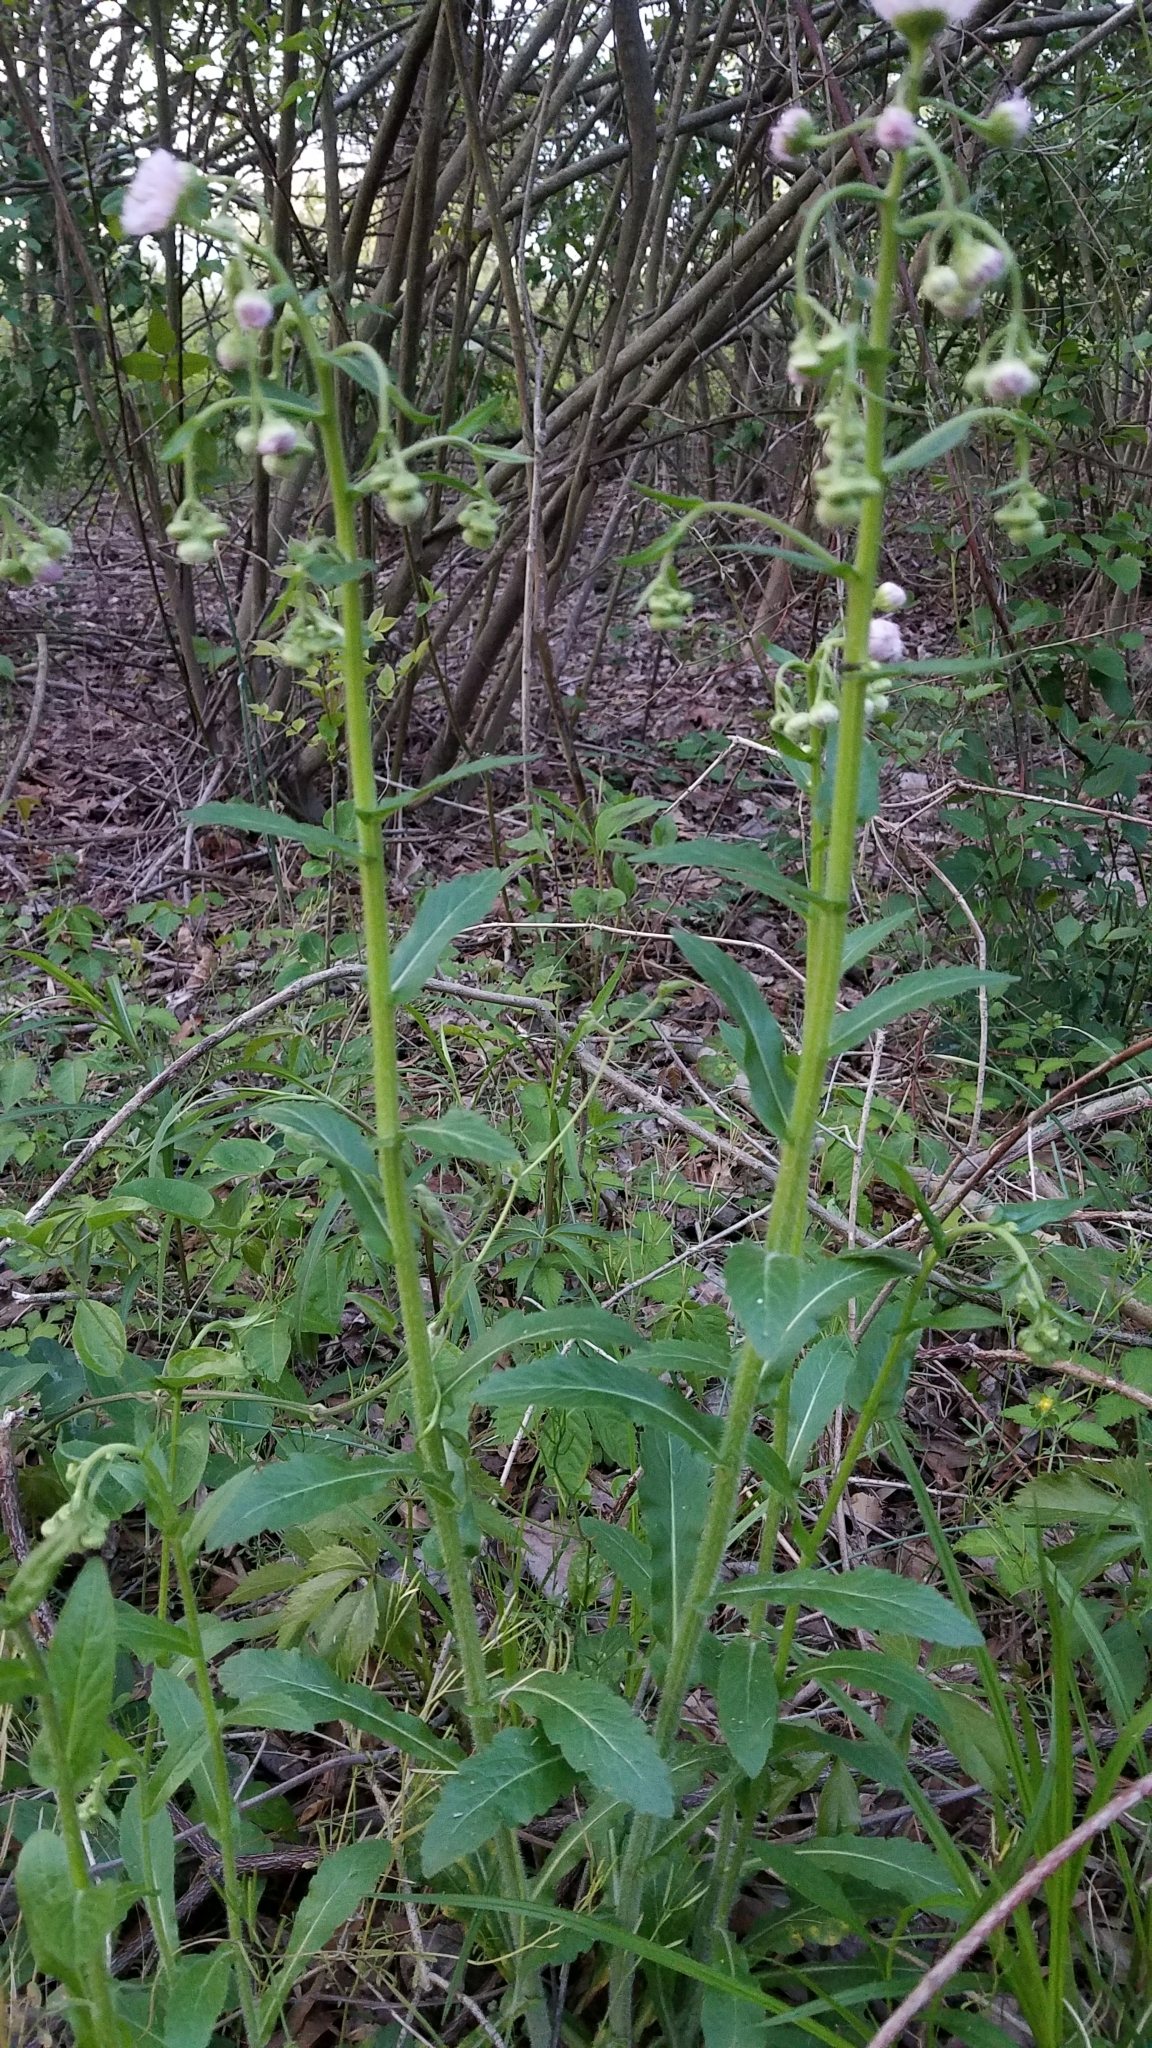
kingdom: Plantae
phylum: Tracheophyta
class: Magnoliopsida
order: Asterales
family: Asteraceae
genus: Erigeron
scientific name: Erigeron philadelphicus
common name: Robin's-plantain
